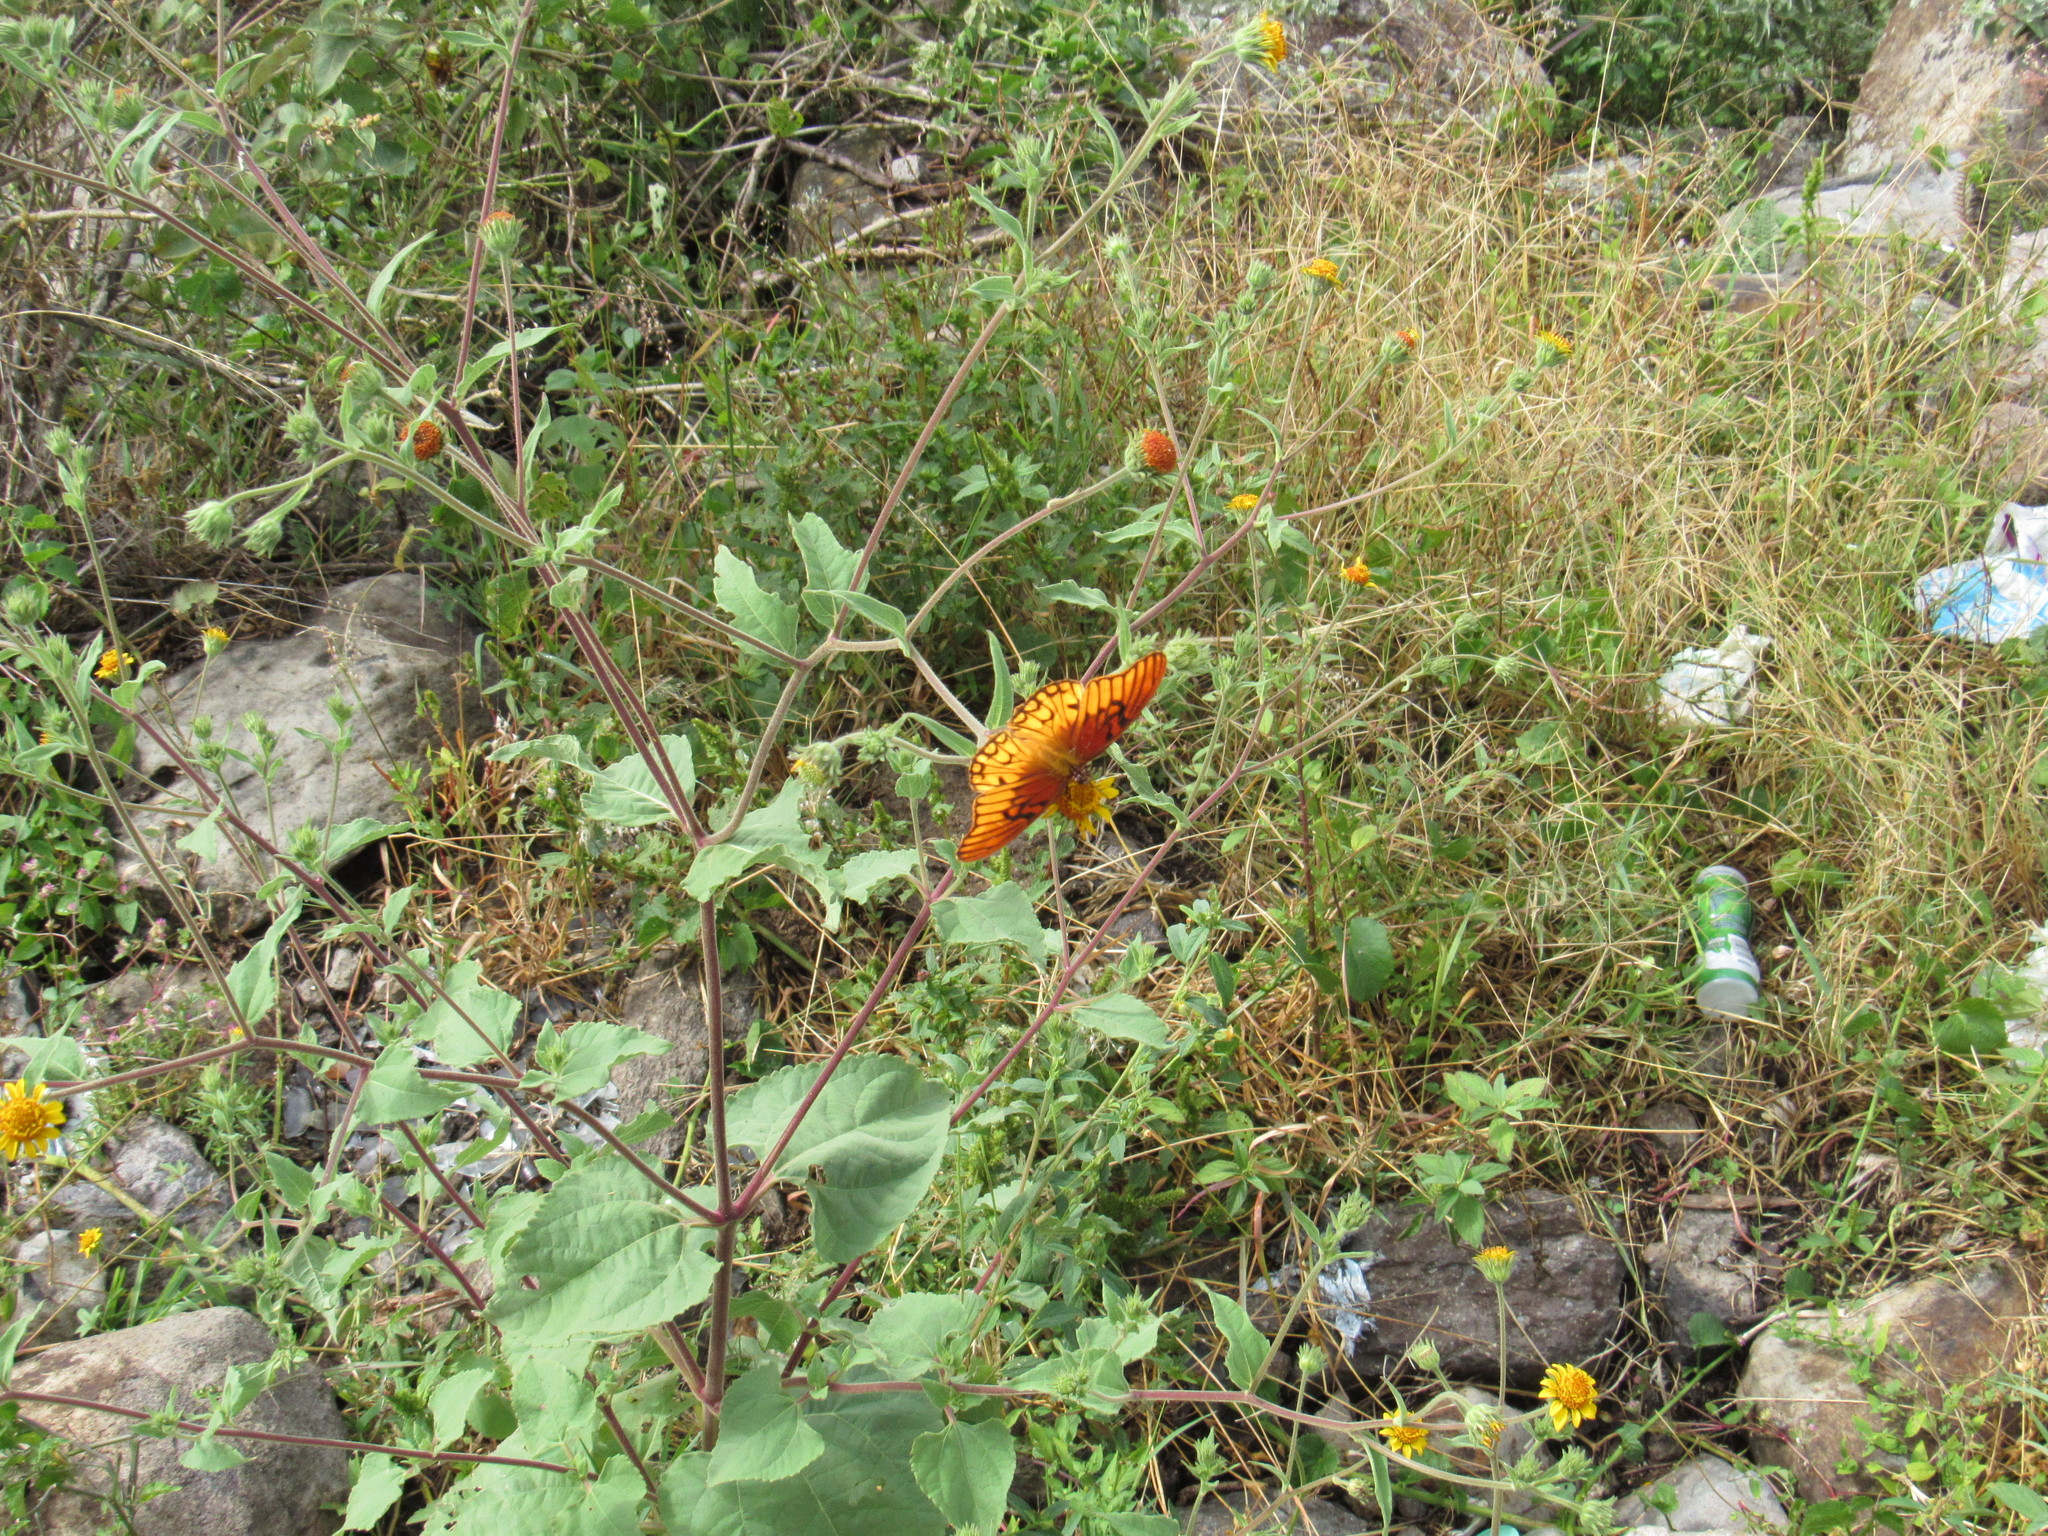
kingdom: Animalia
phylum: Arthropoda
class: Insecta
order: Lepidoptera
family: Nymphalidae
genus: Dione
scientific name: Dione moneta
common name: Mexican silverspot
